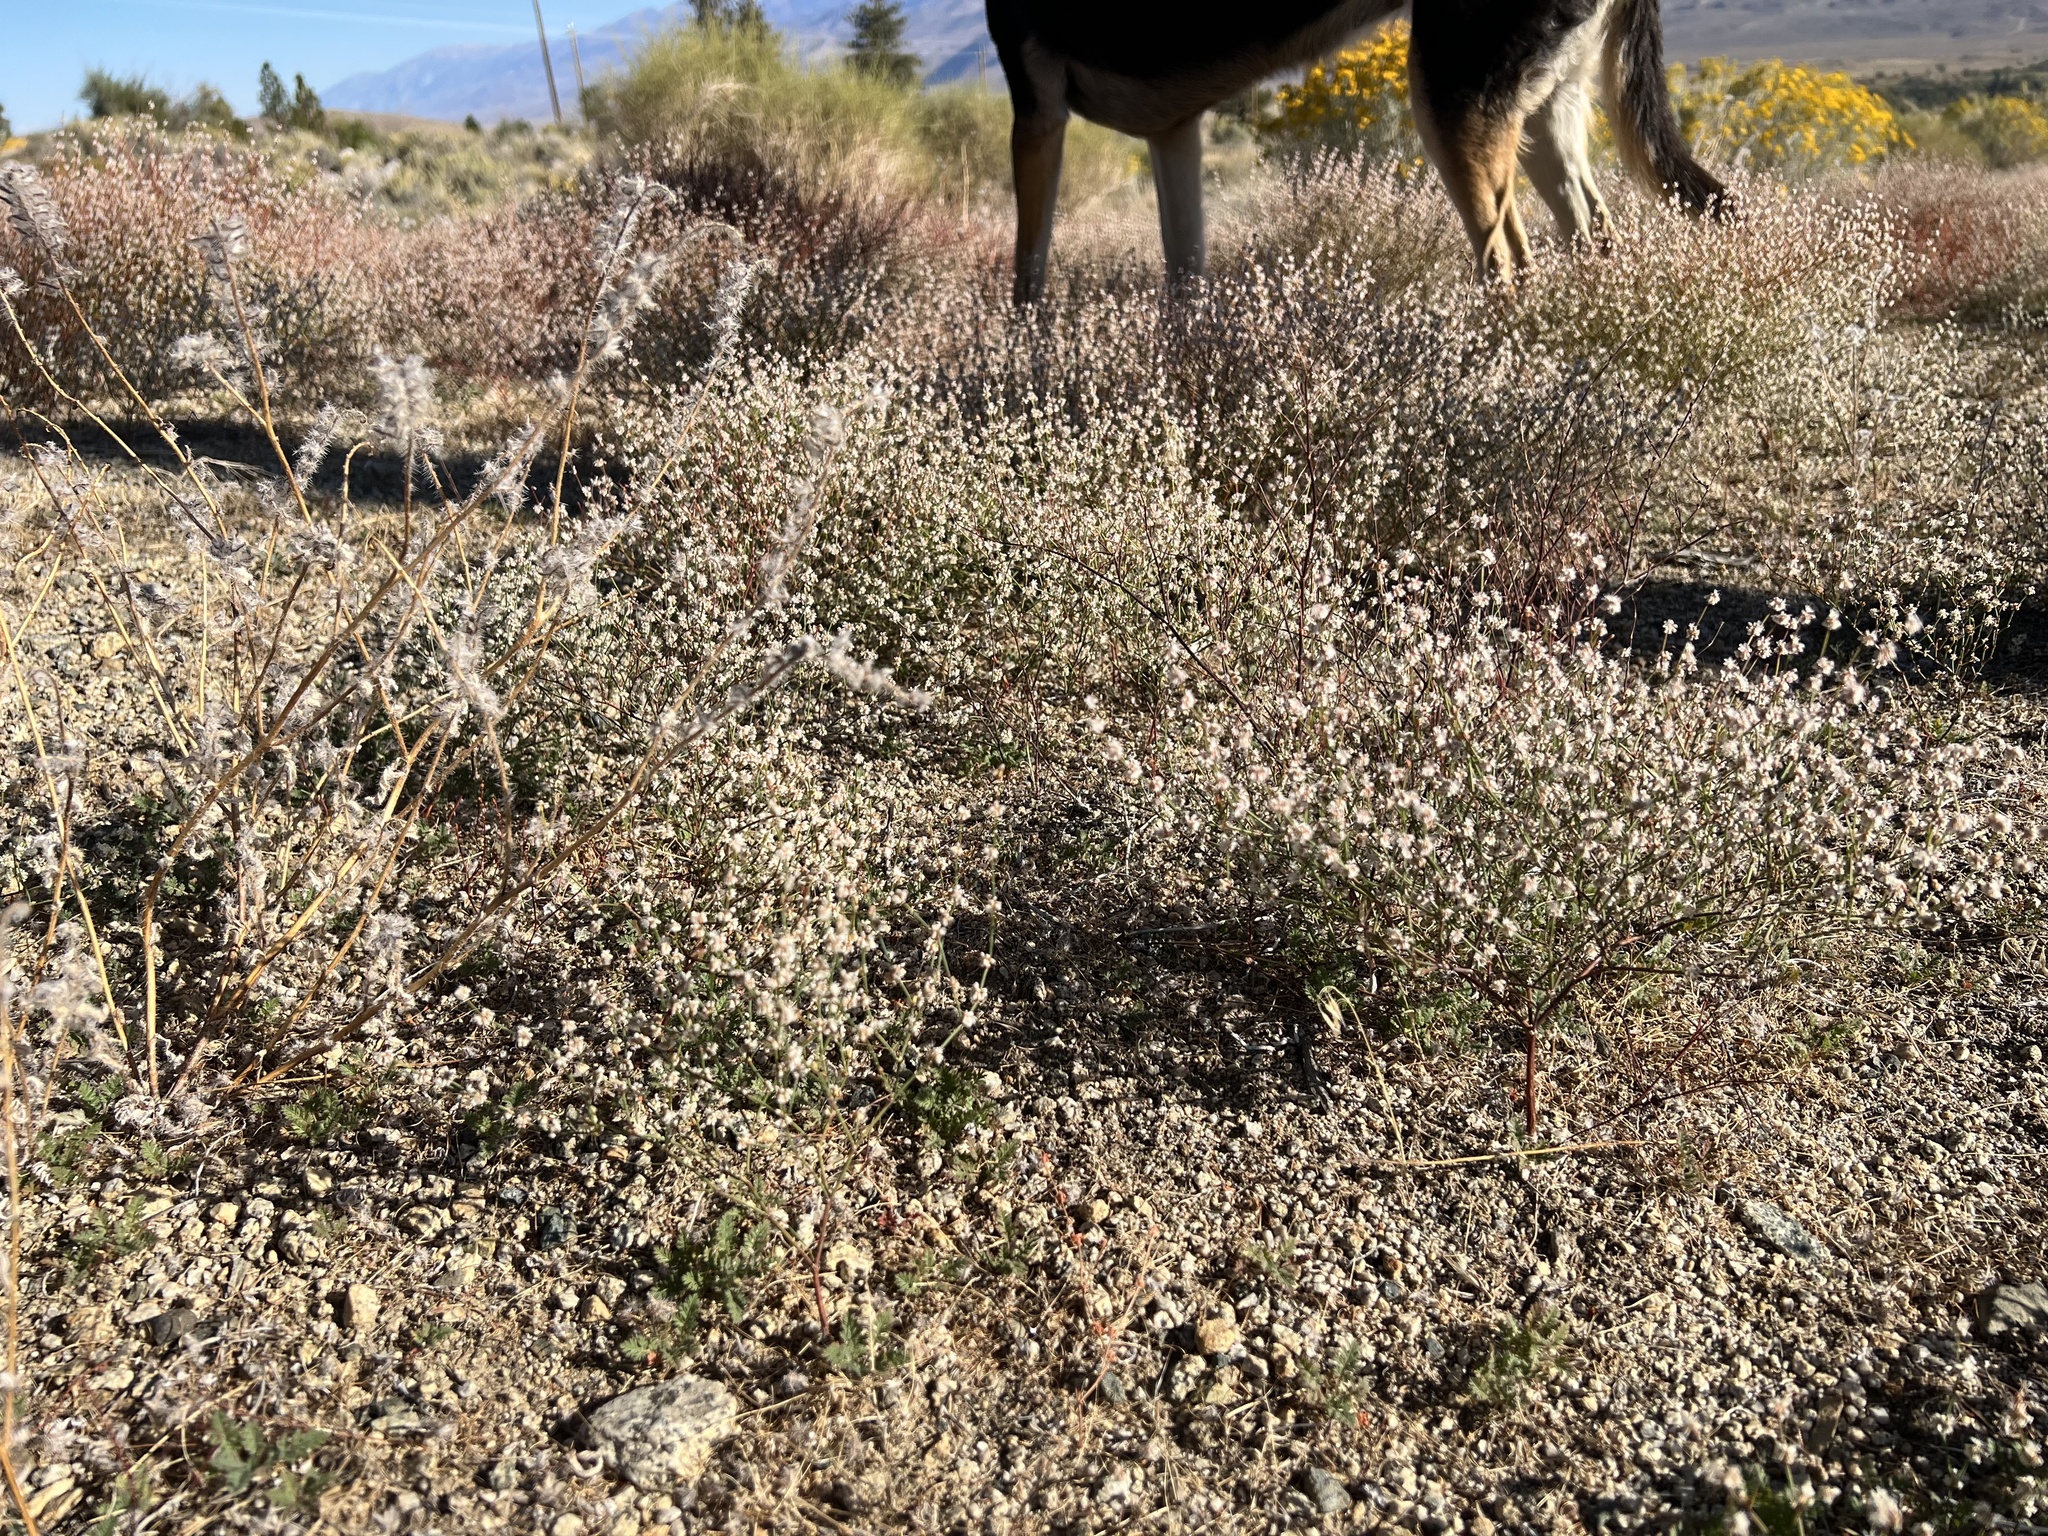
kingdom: Plantae
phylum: Tracheophyta
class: Magnoliopsida
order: Caryophyllales
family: Polygonaceae
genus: Eriogonum
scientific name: Eriogonum baileyi
